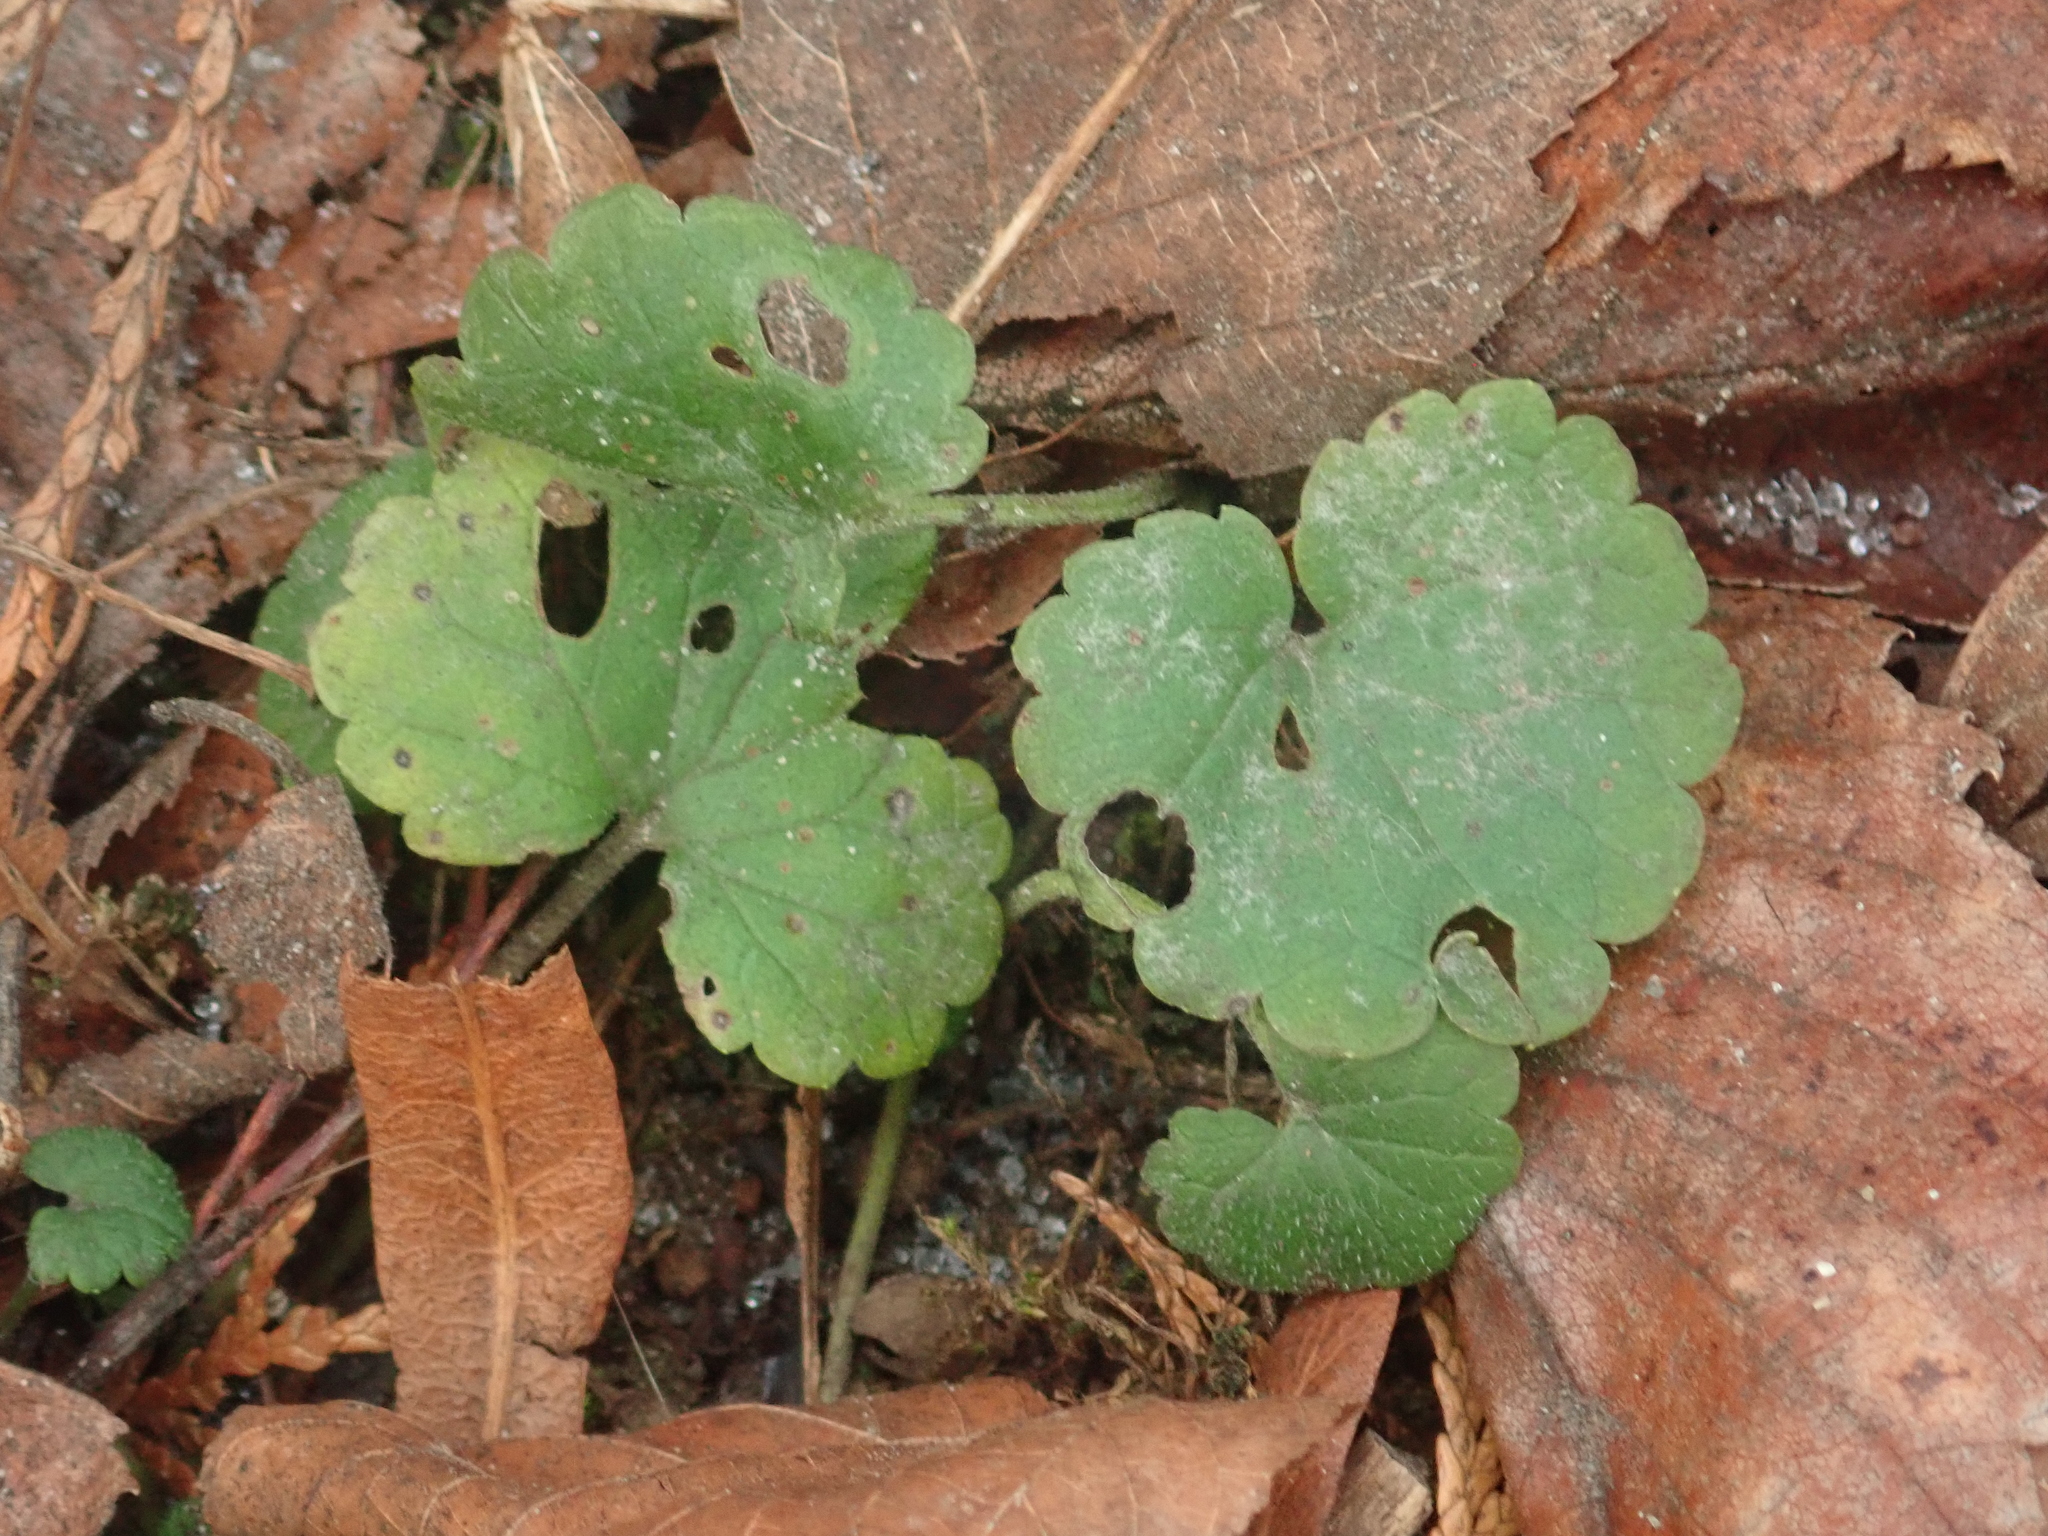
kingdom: Plantae
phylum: Tracheophyta
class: Magnoliopsida
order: Lamiales
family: Lamiaceae
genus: Glechoma
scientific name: Glechoma hederacea
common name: Ground ivy
